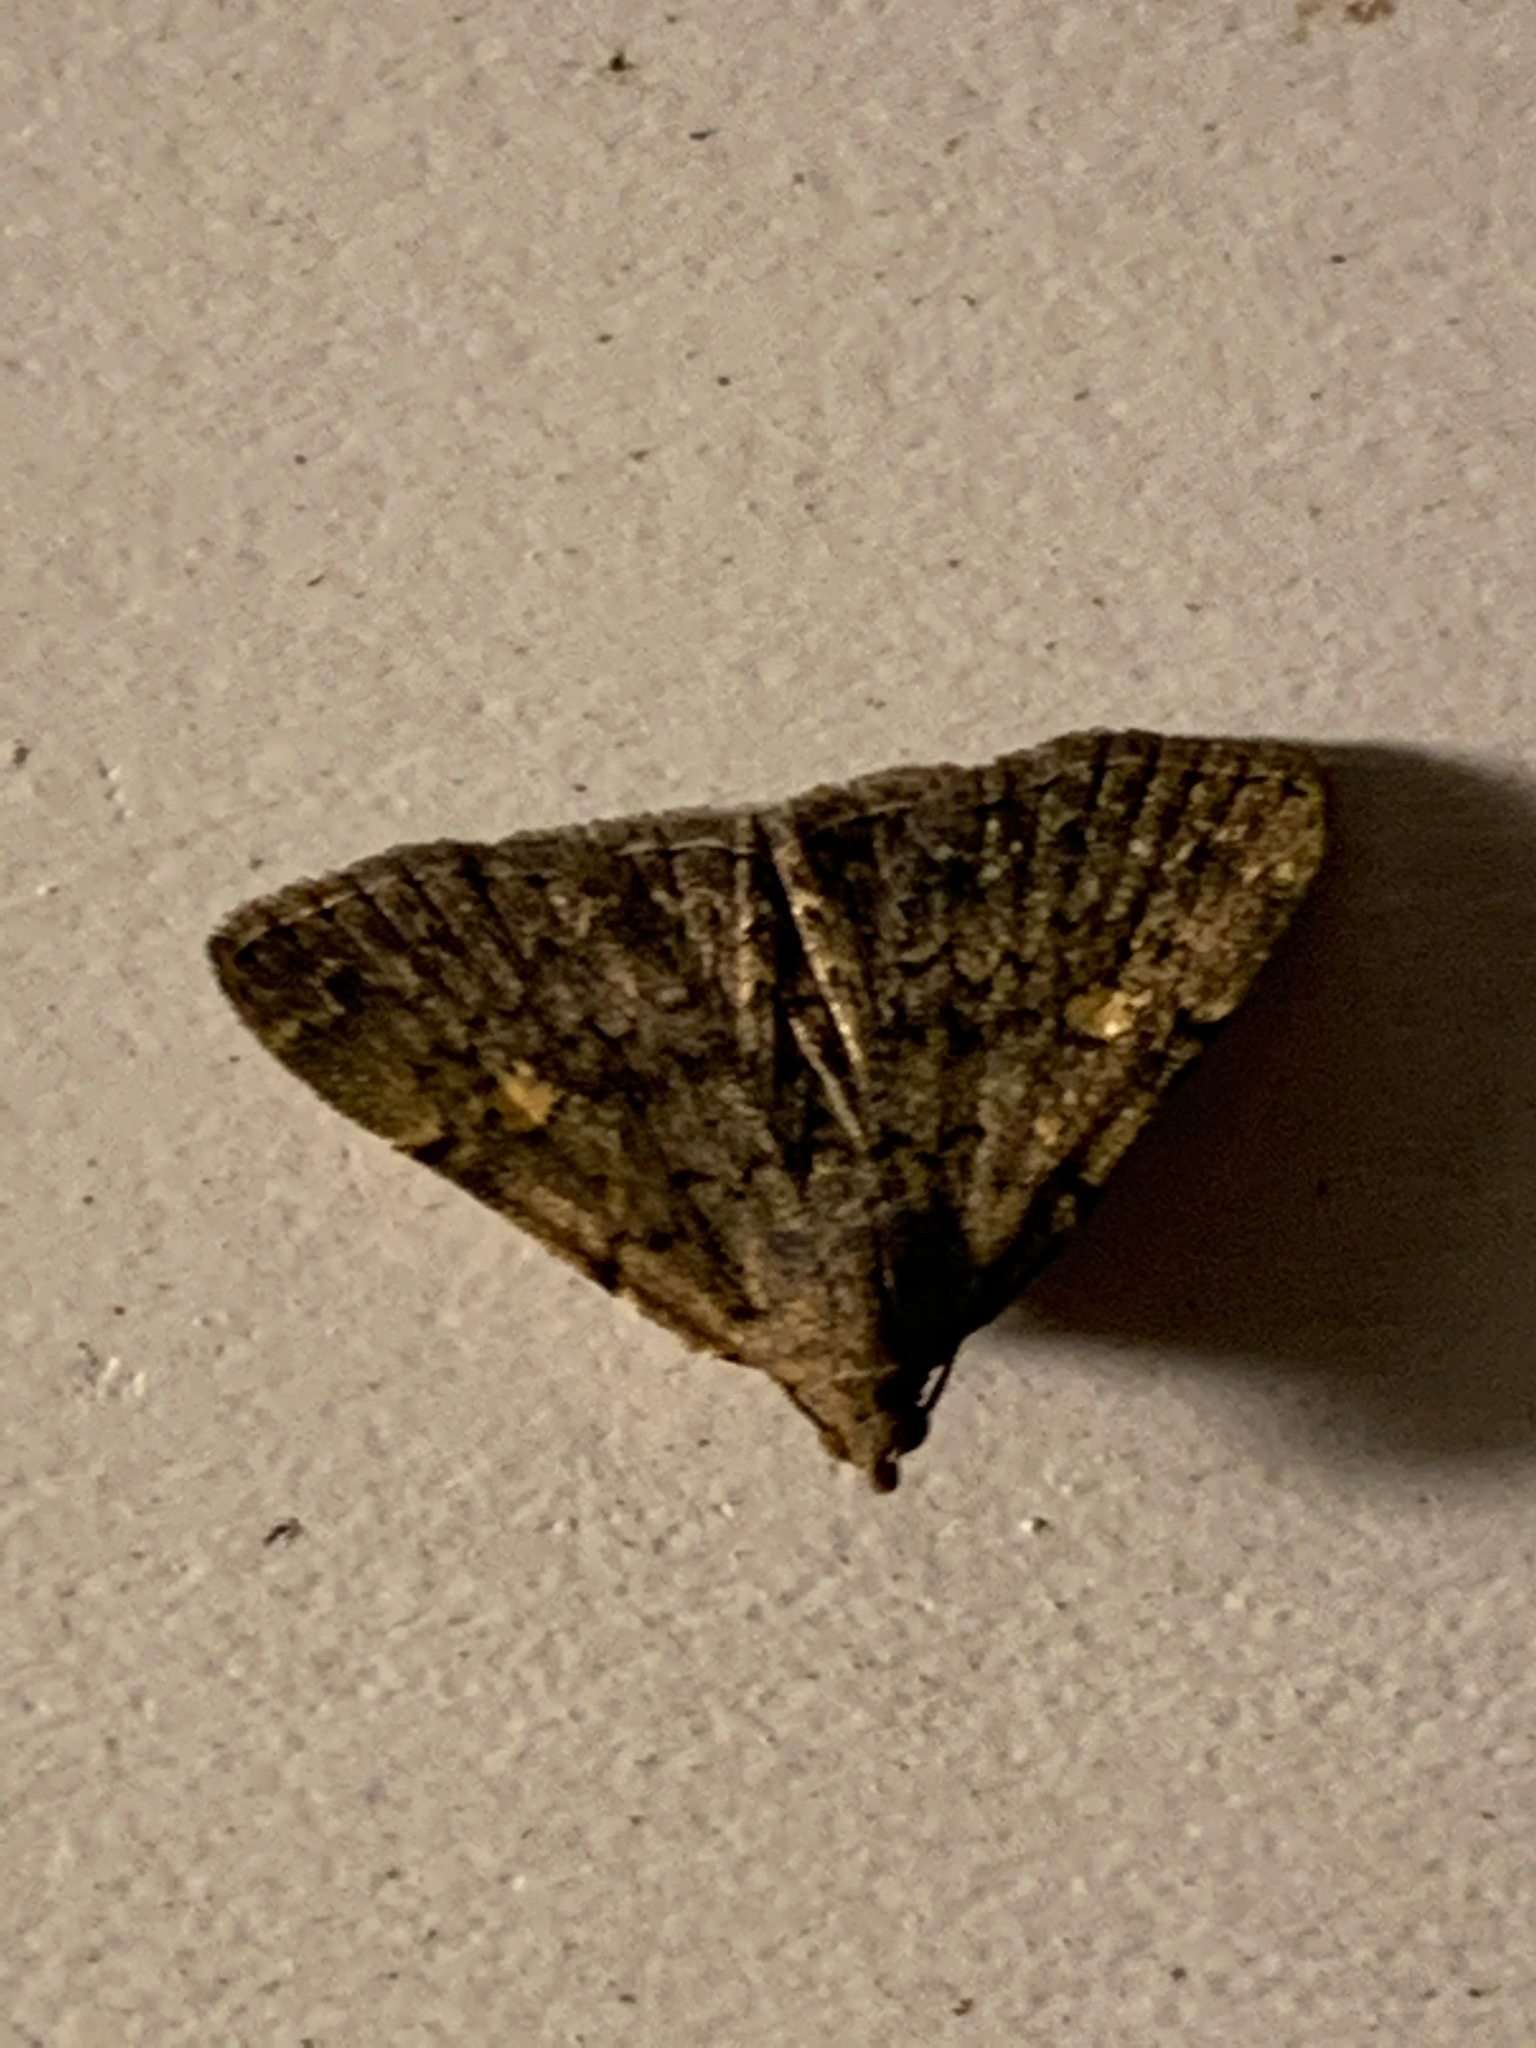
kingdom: Animalia
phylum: Arthropoda
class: Insecta
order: Lepidoptera
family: Erebidae
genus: Idia
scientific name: Idia aemula
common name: Common idia moth
